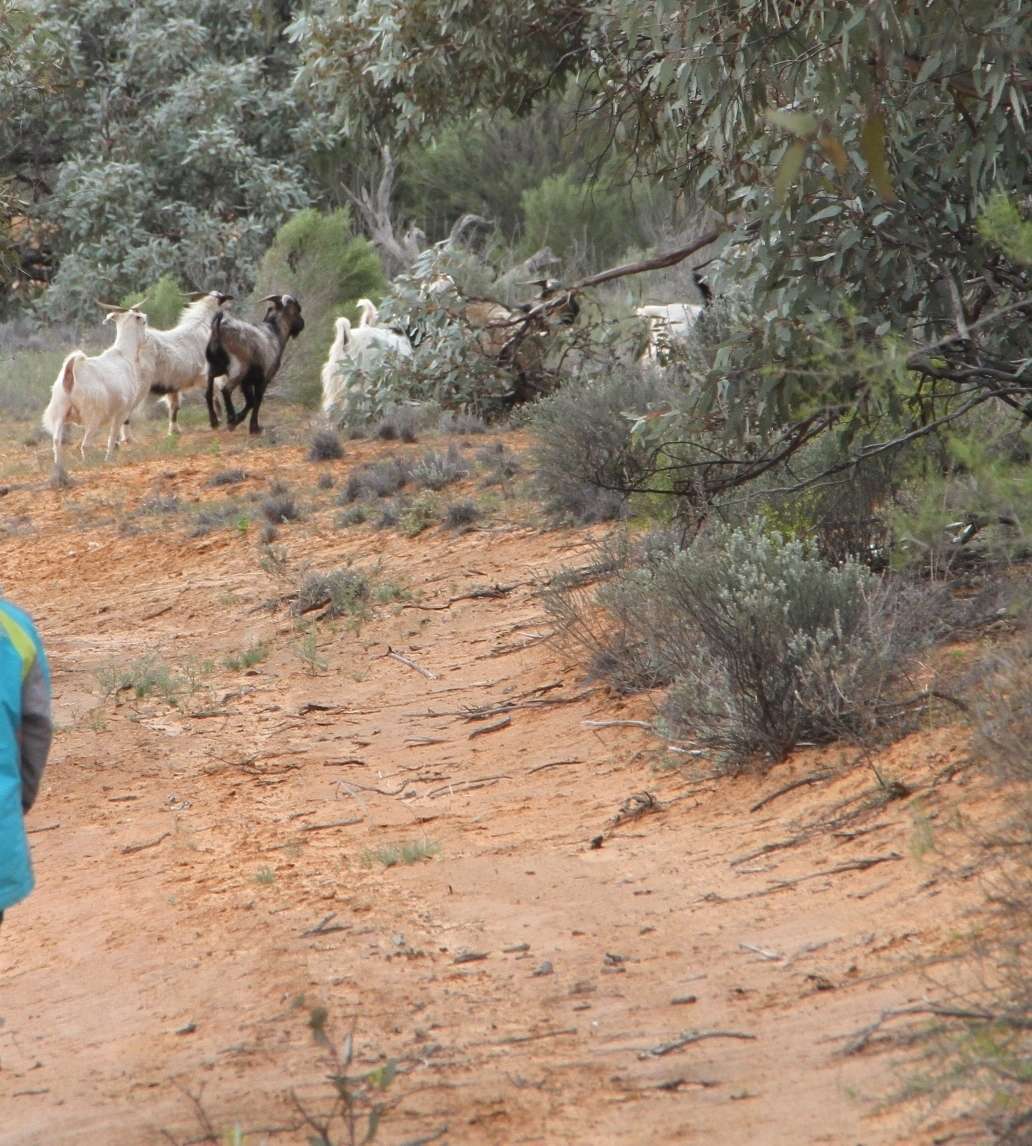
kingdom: Animalia
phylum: Chordata
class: Mammalia
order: Artiodactyla
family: Bovidae
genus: Capra
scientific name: Capra hircus
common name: Domestic goat
